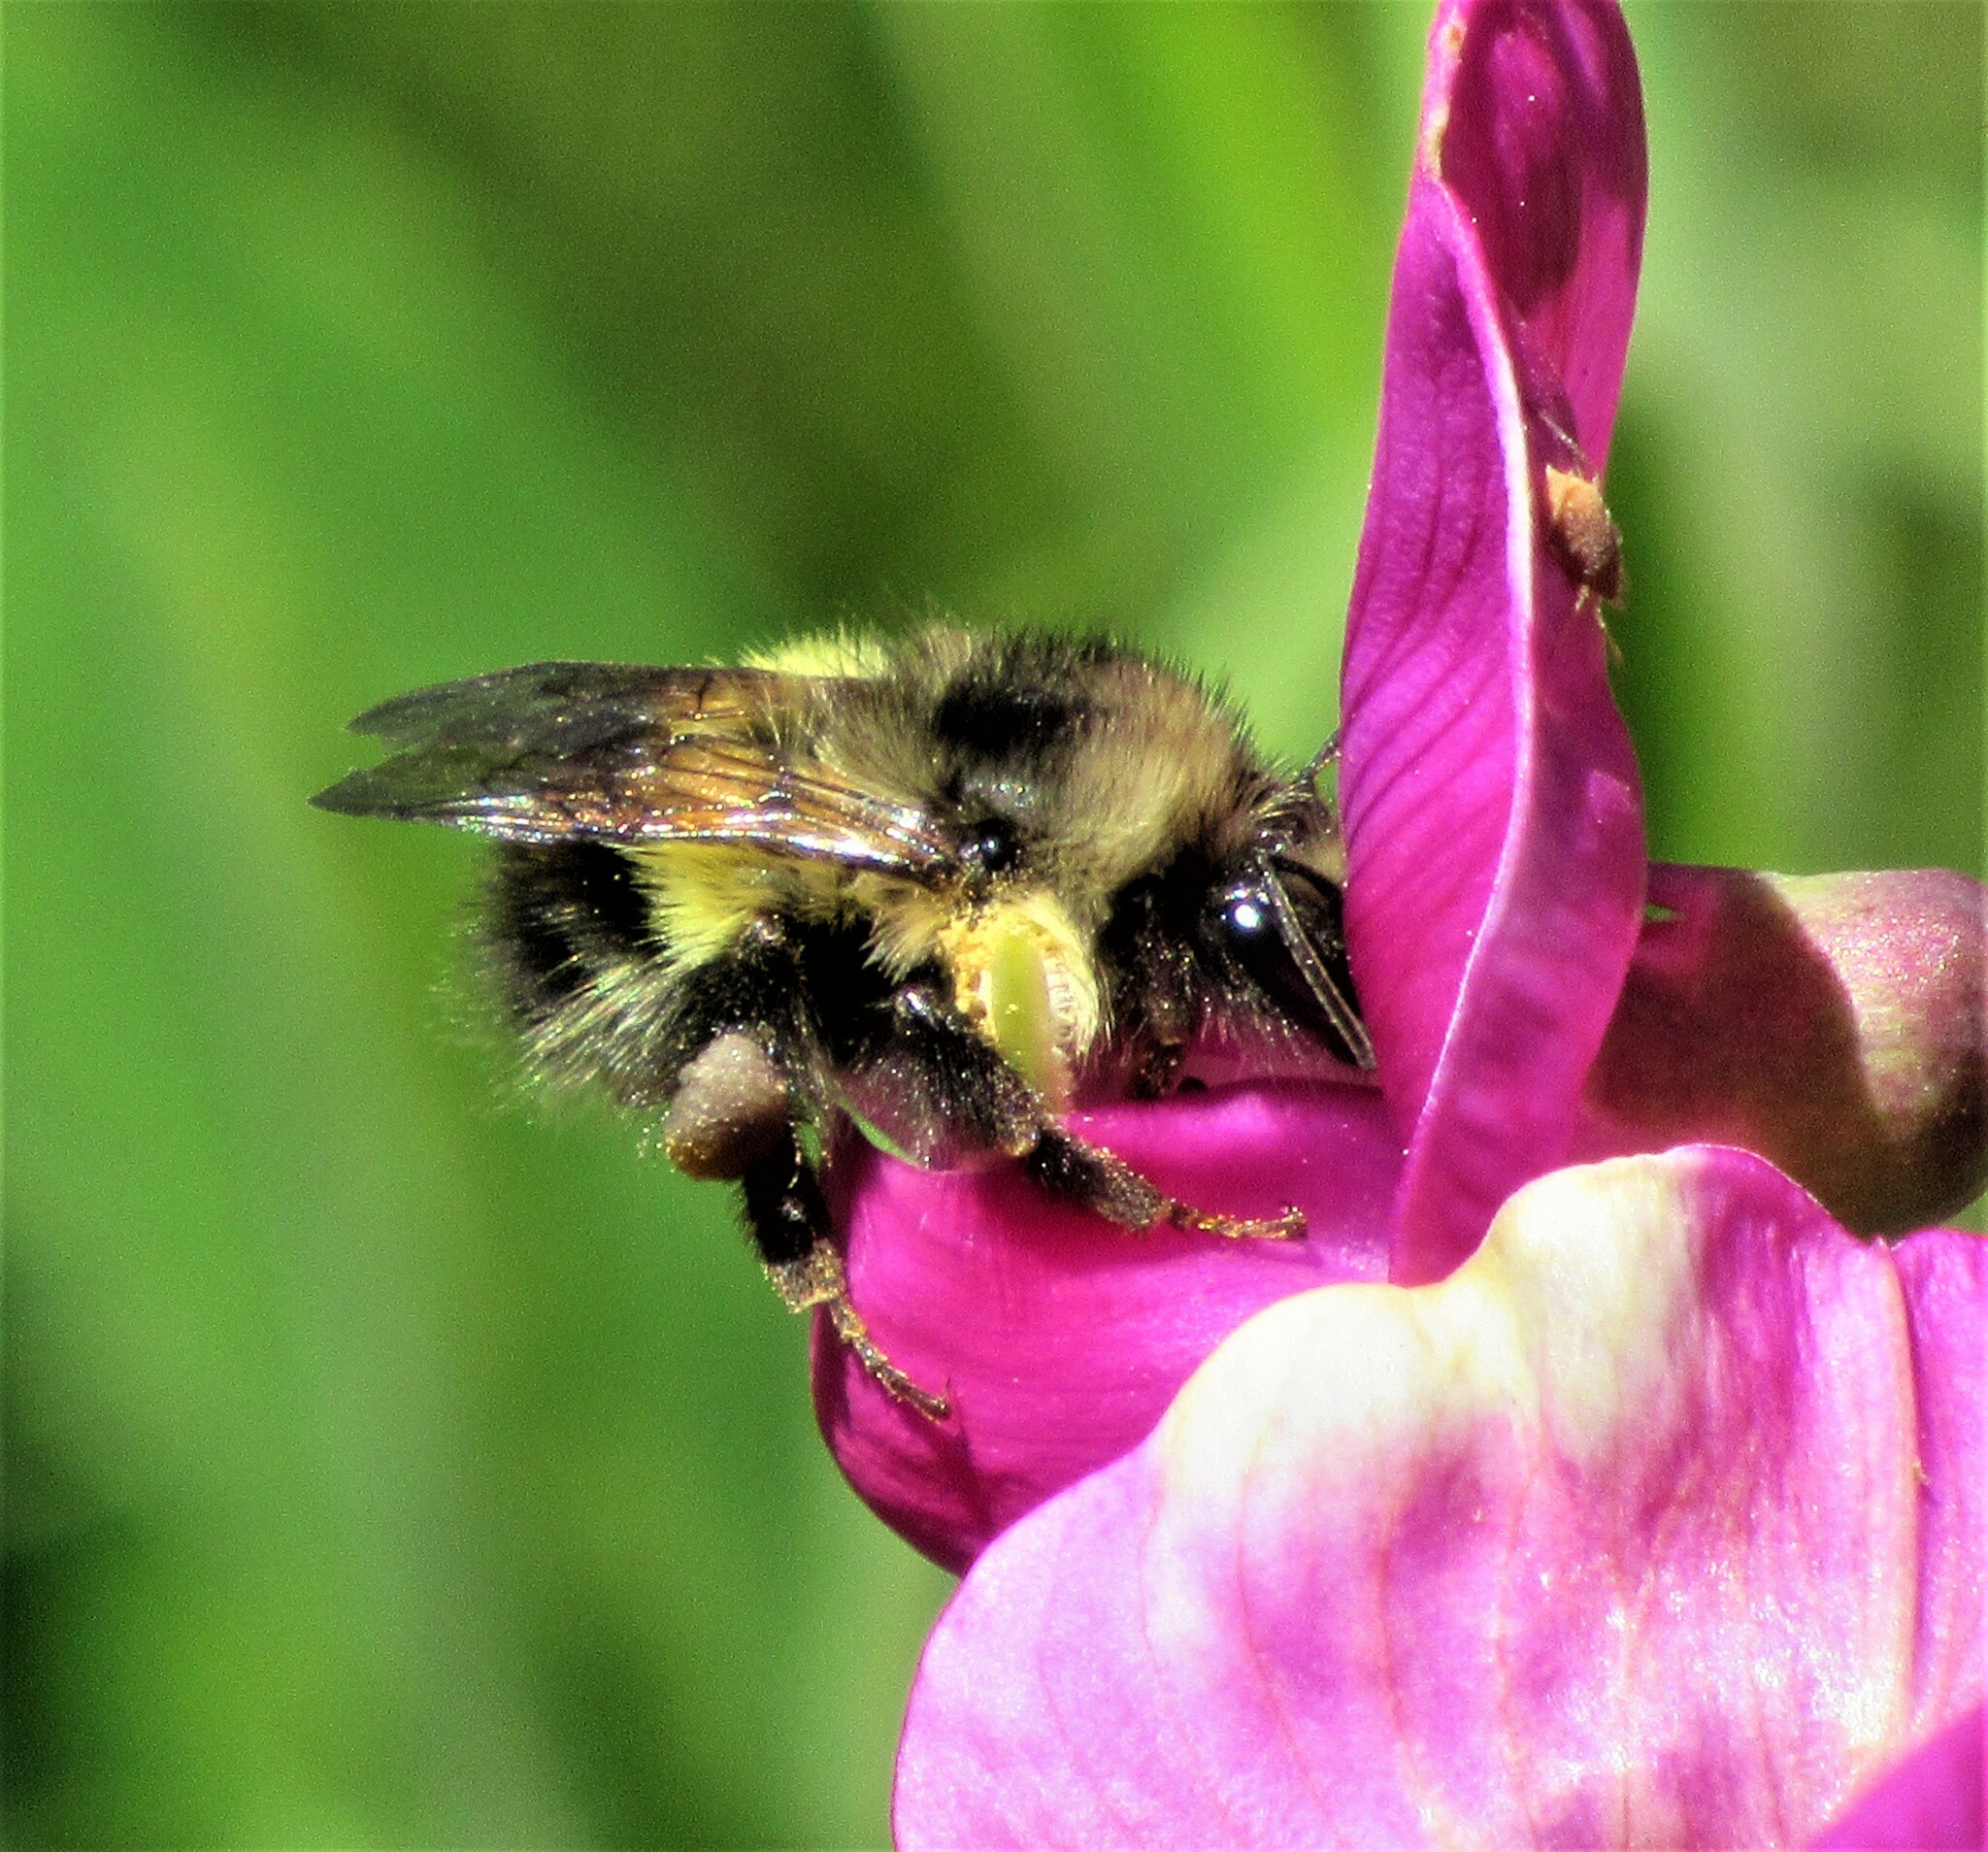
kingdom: Animalia
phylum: Arthropoda
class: Insecta
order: Hymenoptera
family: Apidae
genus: Bombus
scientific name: Bombus flavifrons
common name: Yellow head bumble bee
